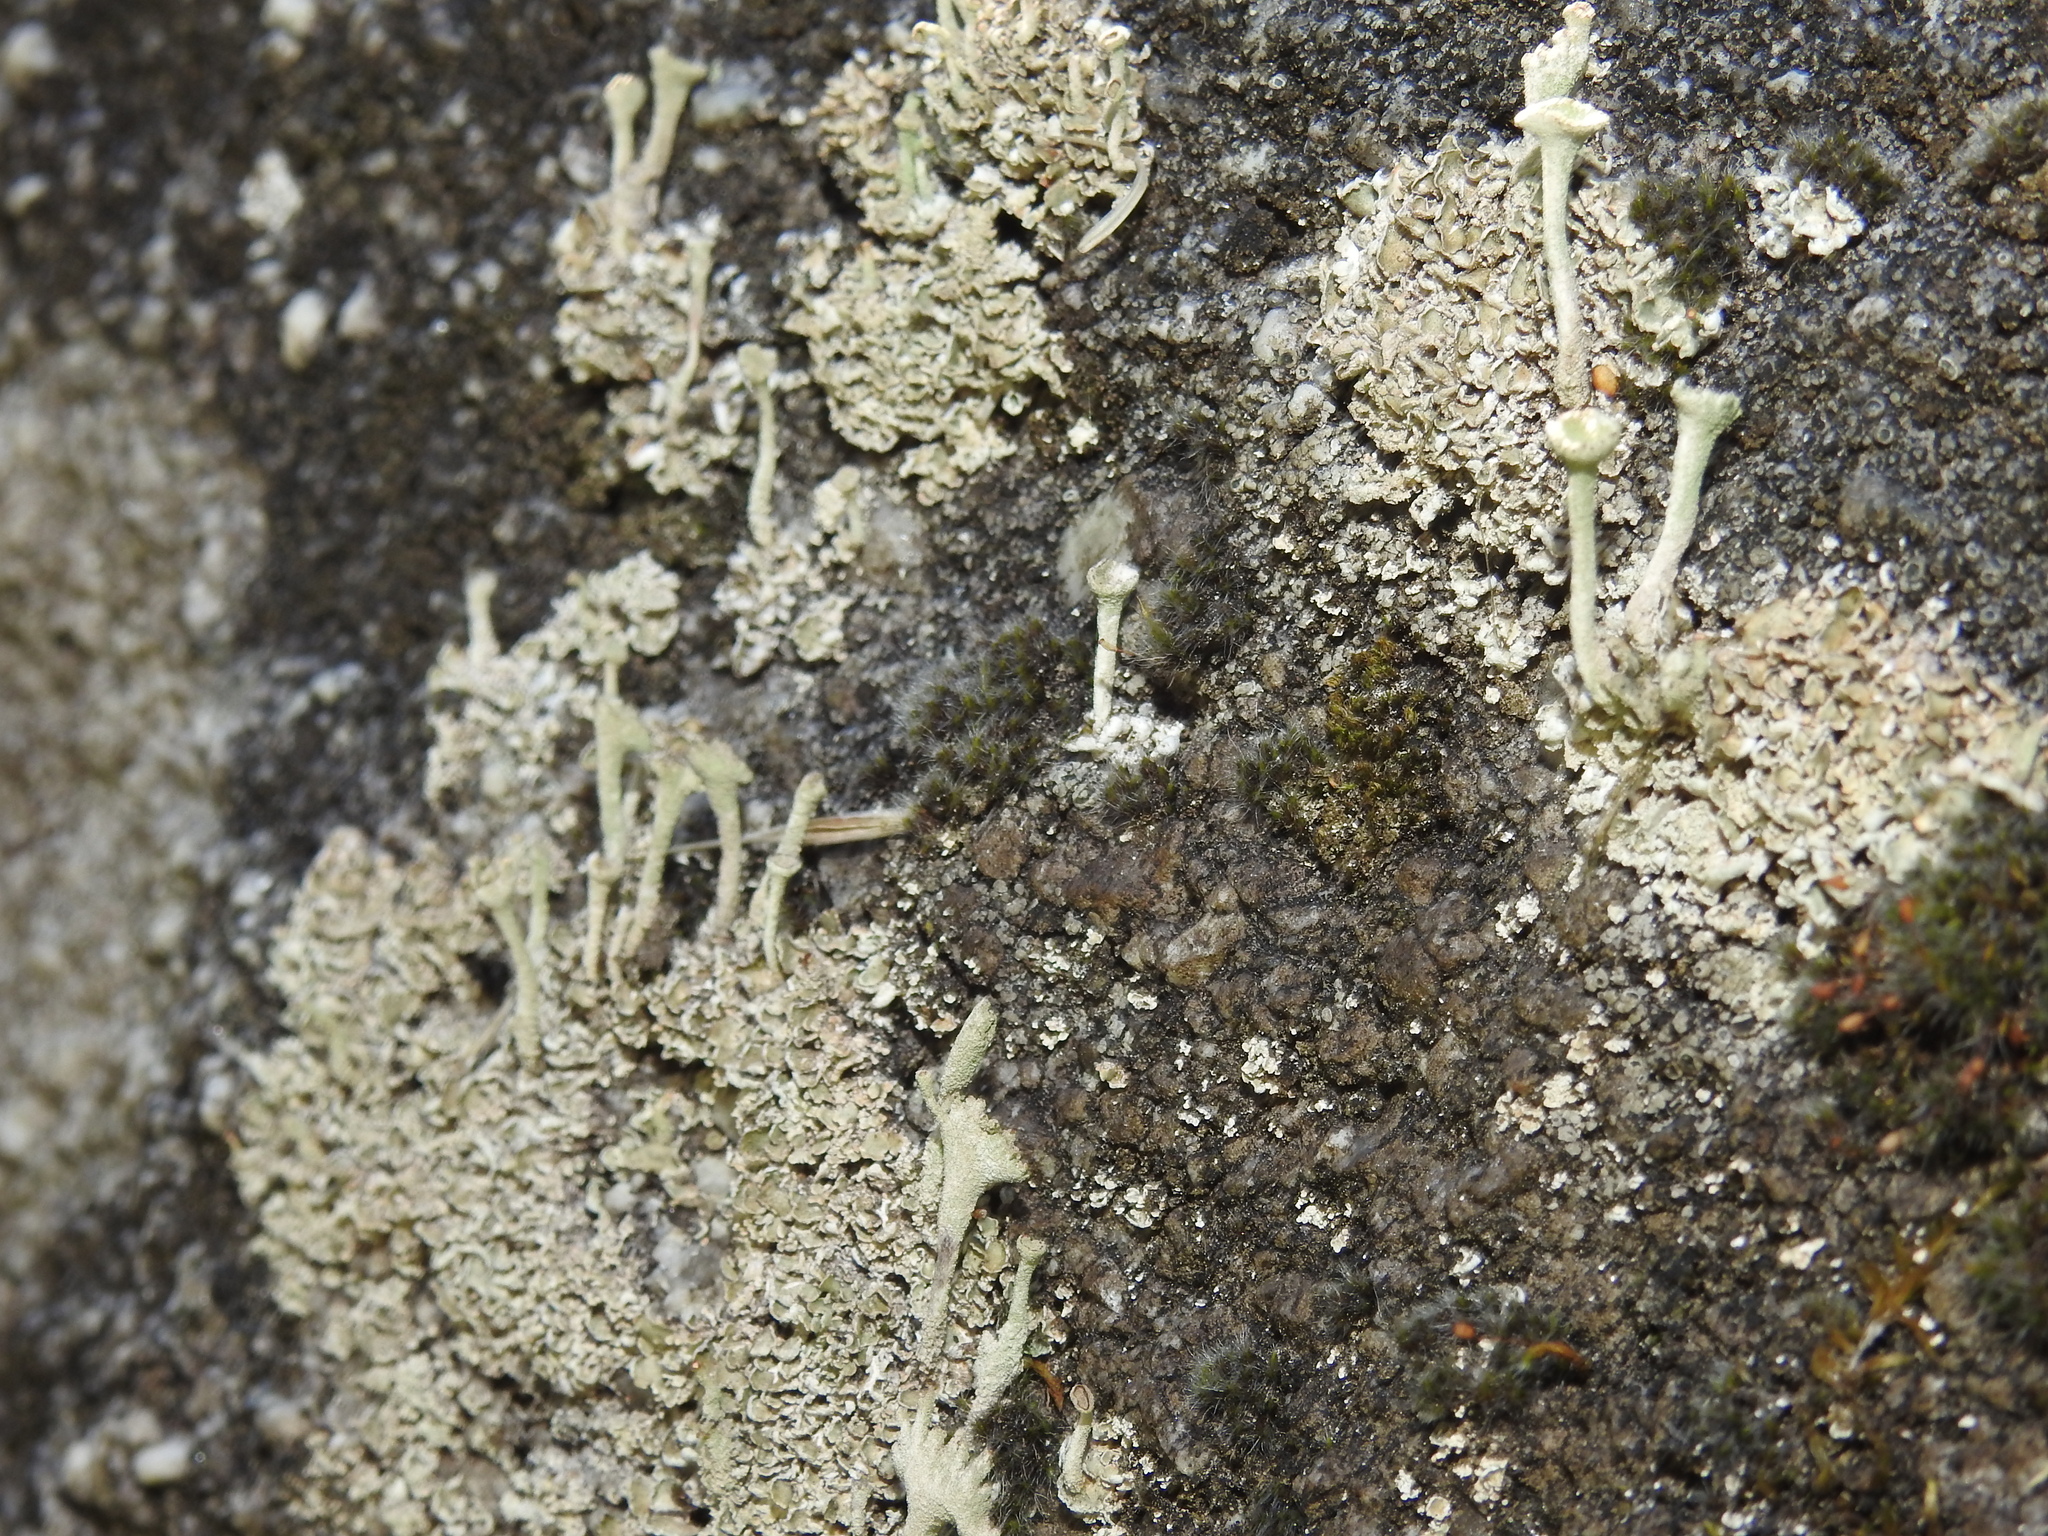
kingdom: Fungi
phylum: Ascomycota
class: Lecanoromycetes
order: Lecanorales
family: Cladoniaceae
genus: Cladonia
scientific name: Cladonia fimbriata
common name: Powdered trumpet lichen
